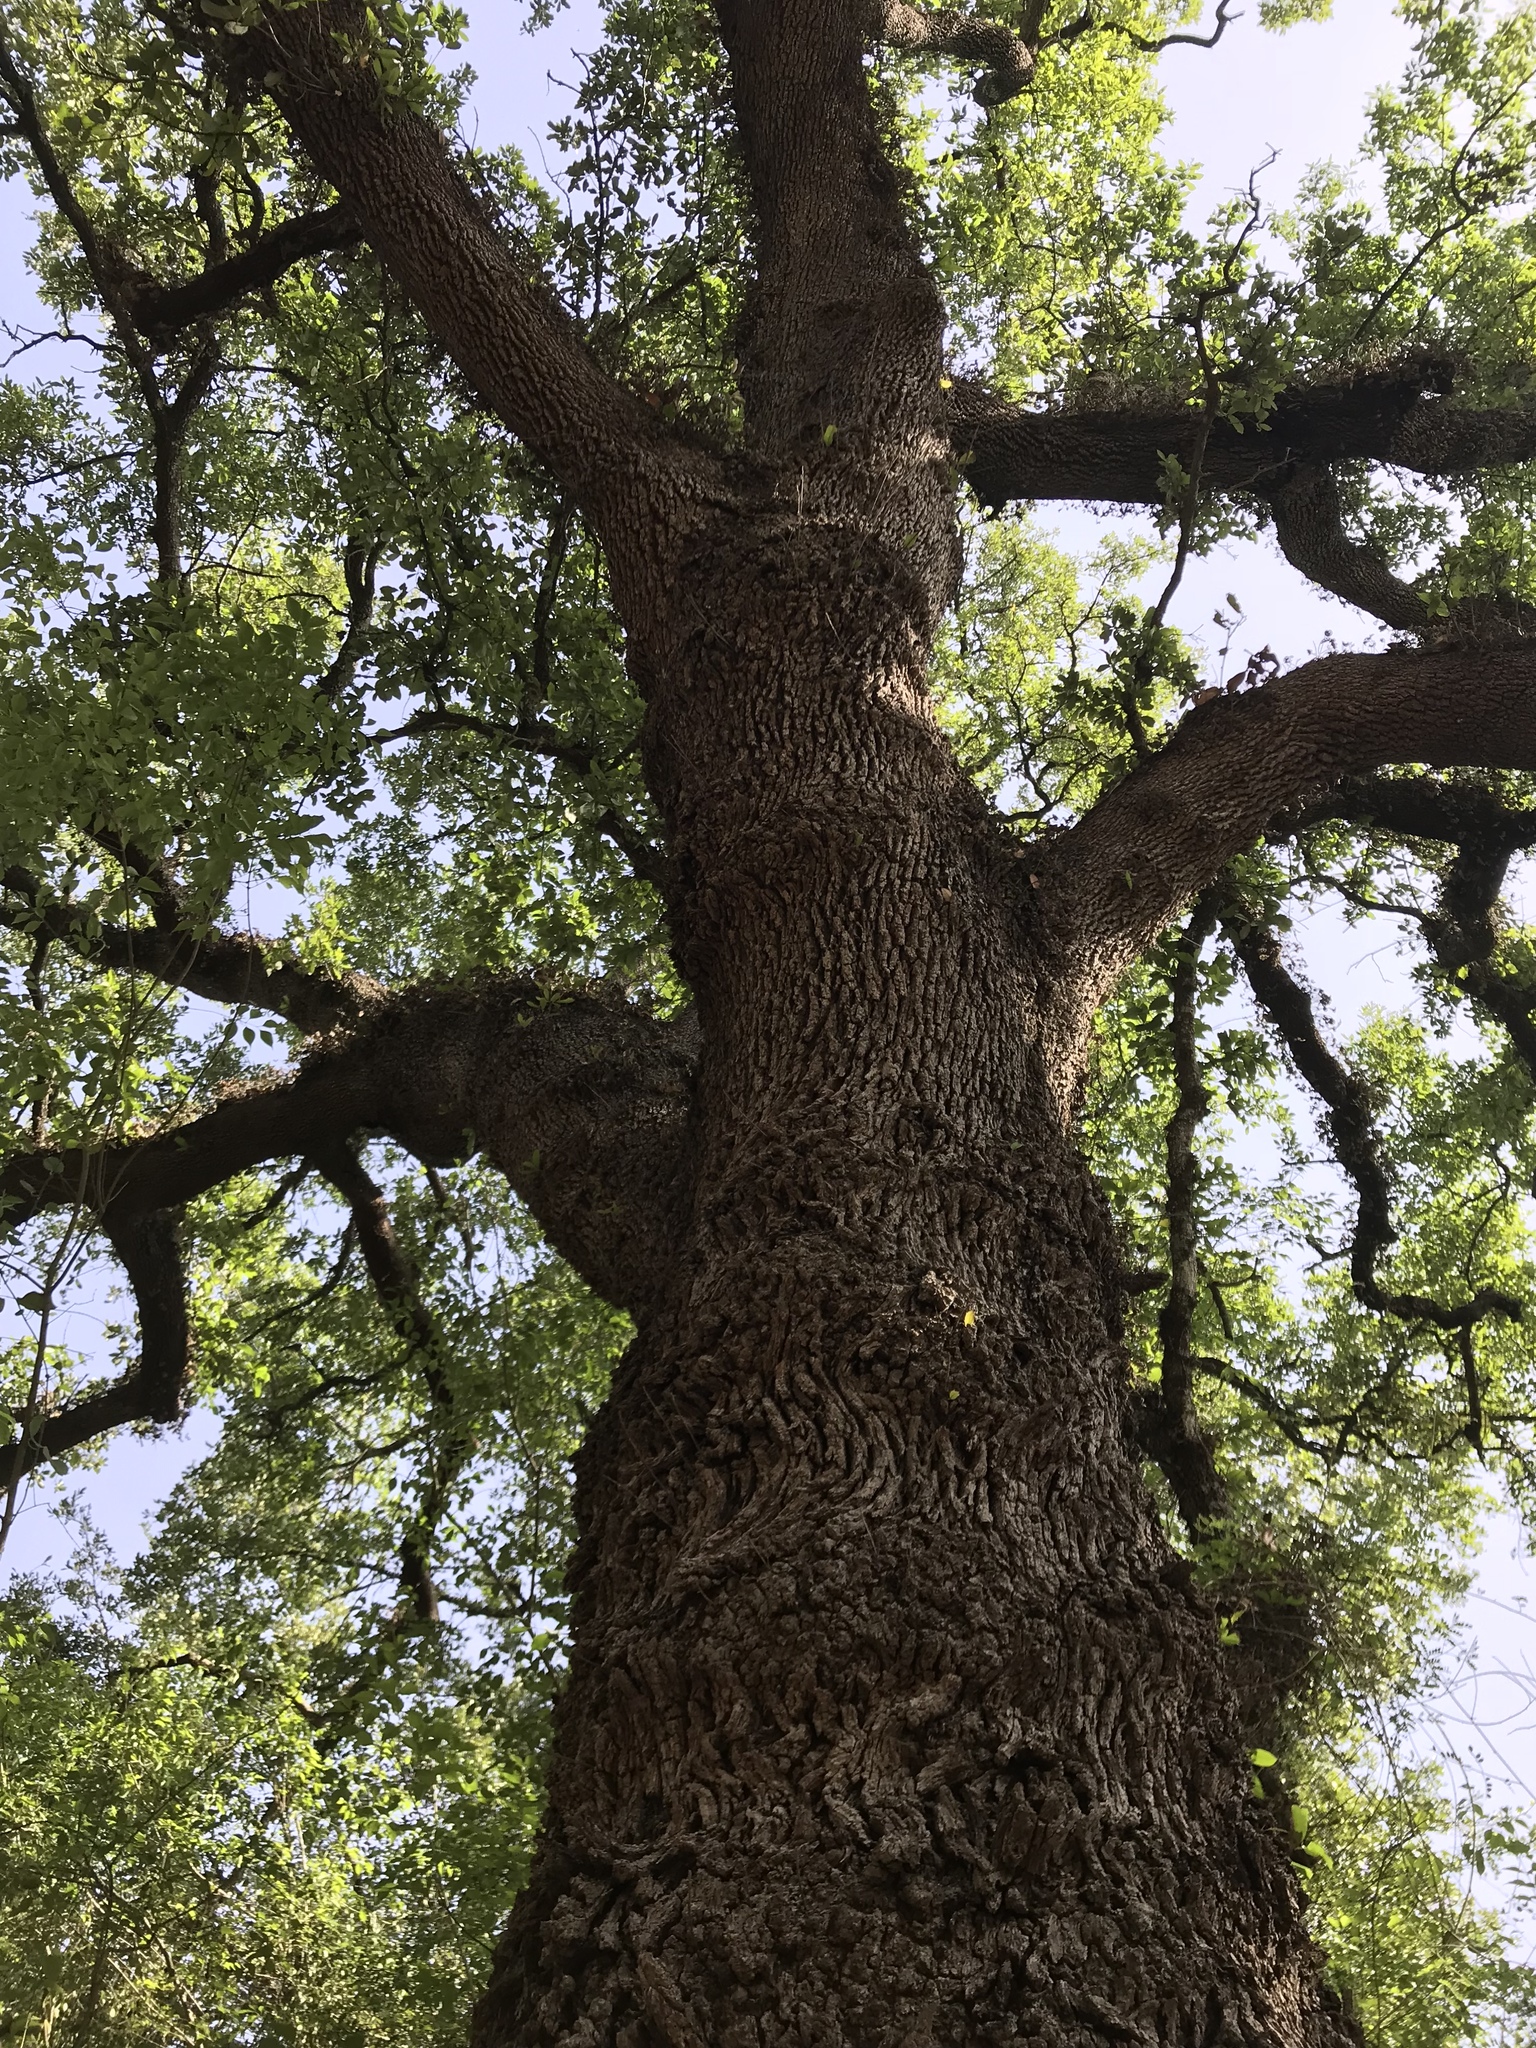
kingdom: Plantae
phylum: Tracheophyta
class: Magnoliopsida
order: Fagales
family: Fagaceae
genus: Quercus
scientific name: Quercus fusiformis
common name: Texas live oak
